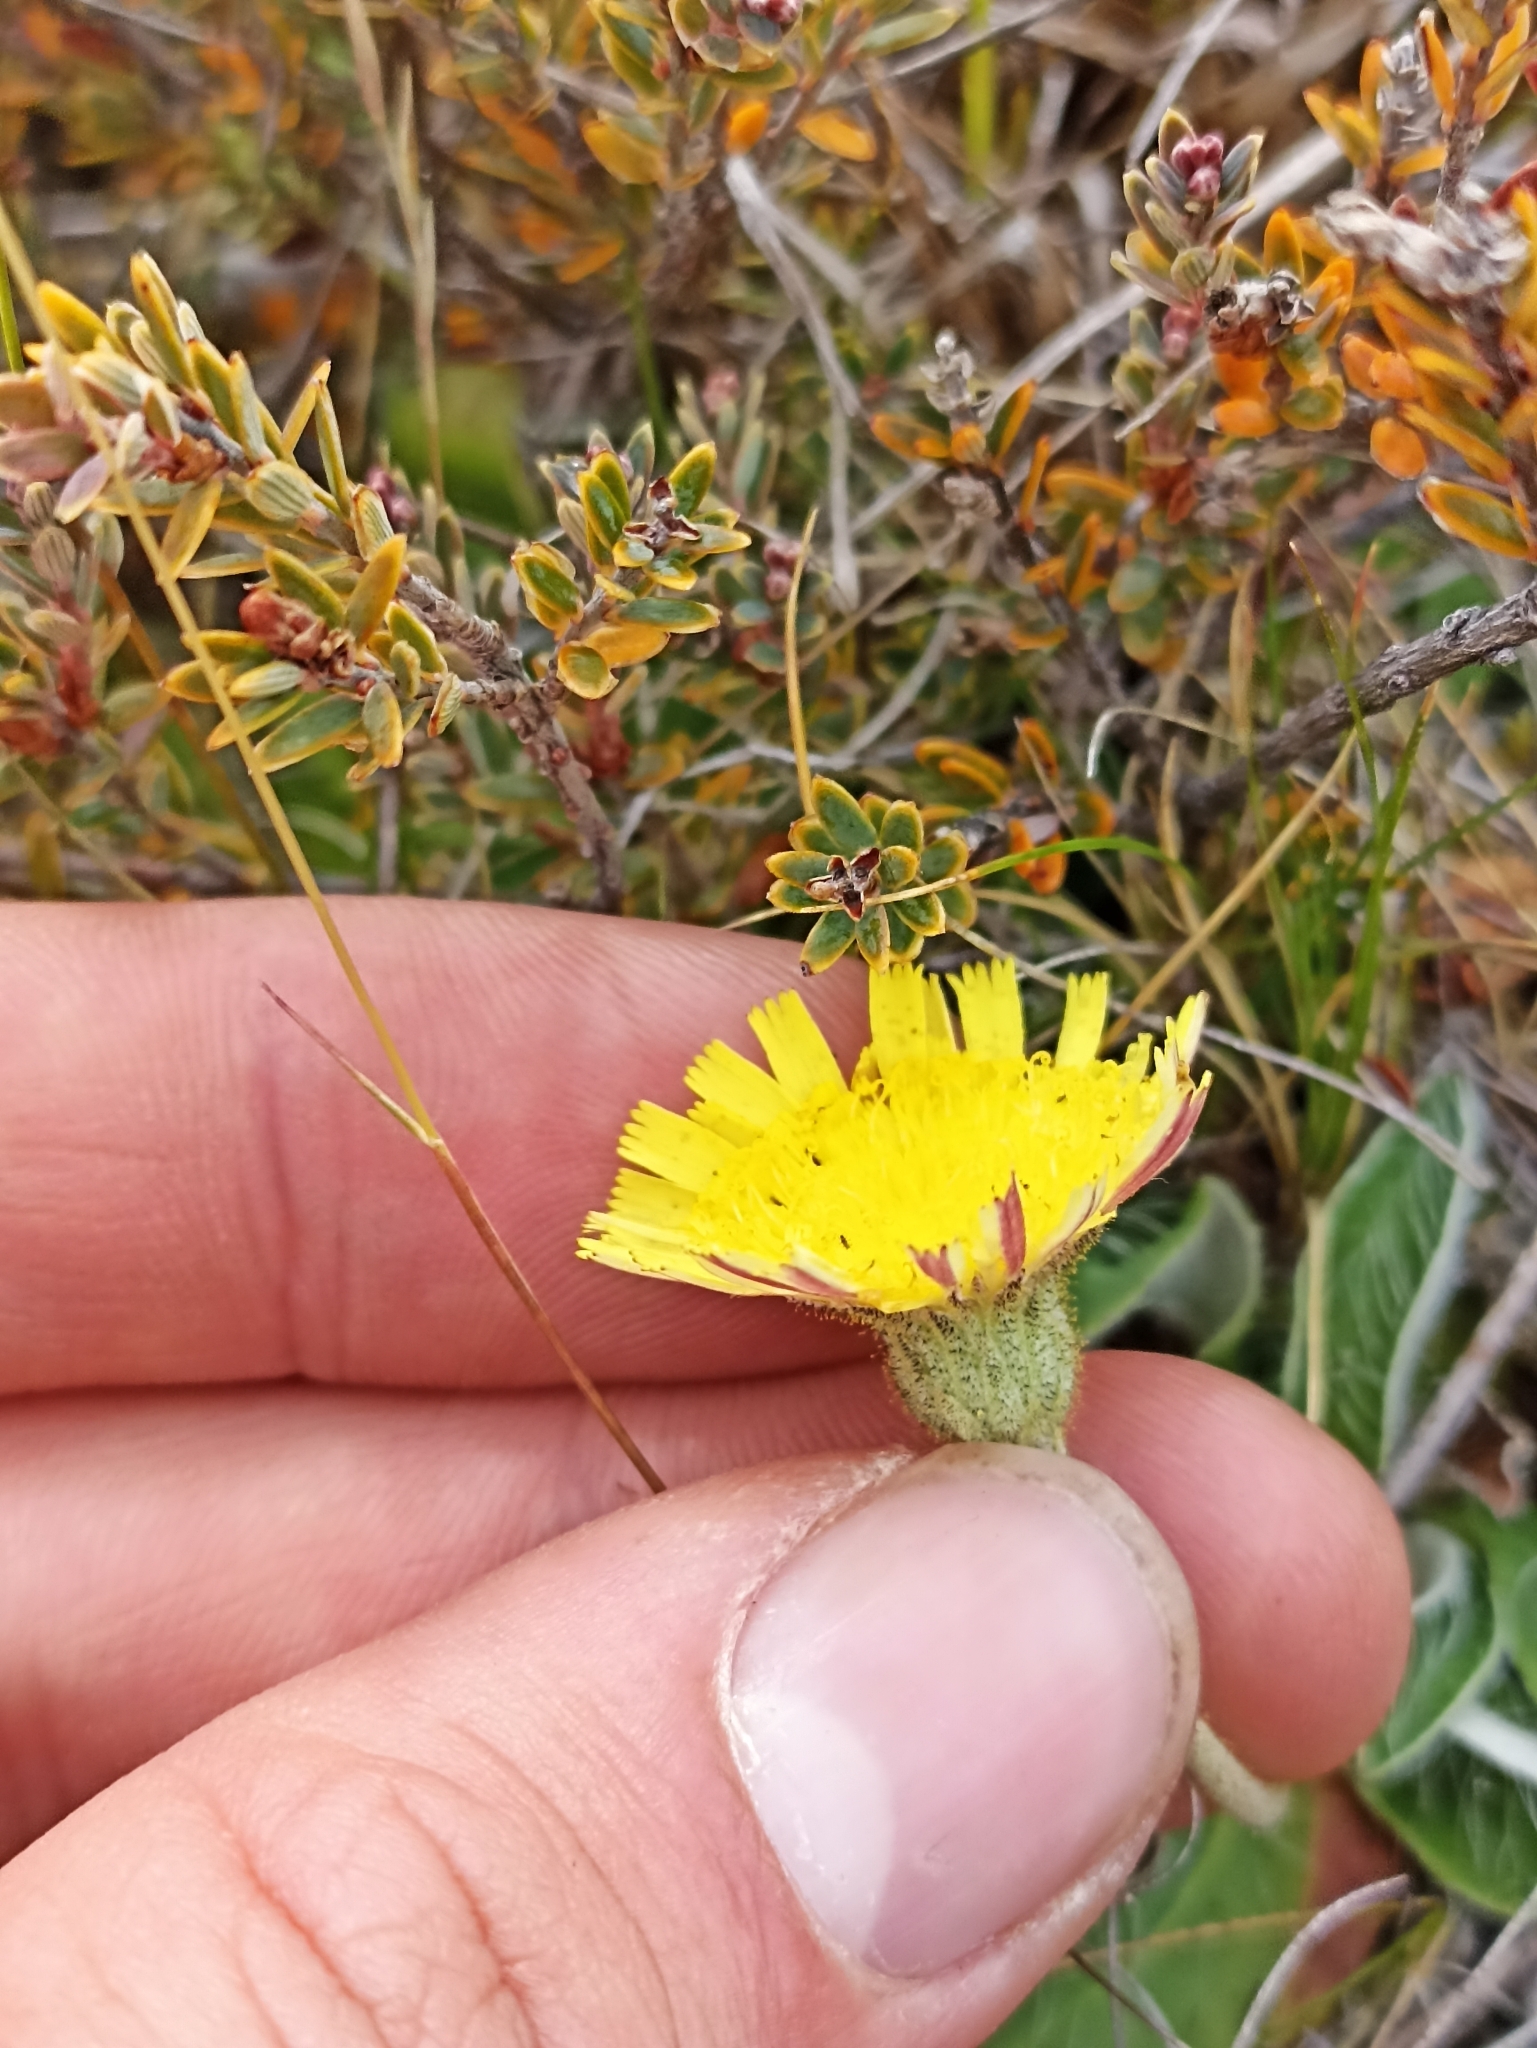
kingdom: Plantae
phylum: Tracheophyta
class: Magnoliopsida
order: Asterales
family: Asteraceae
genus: Pilosella
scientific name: Pilosella officinarum
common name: Mouse-ear hawkweed
